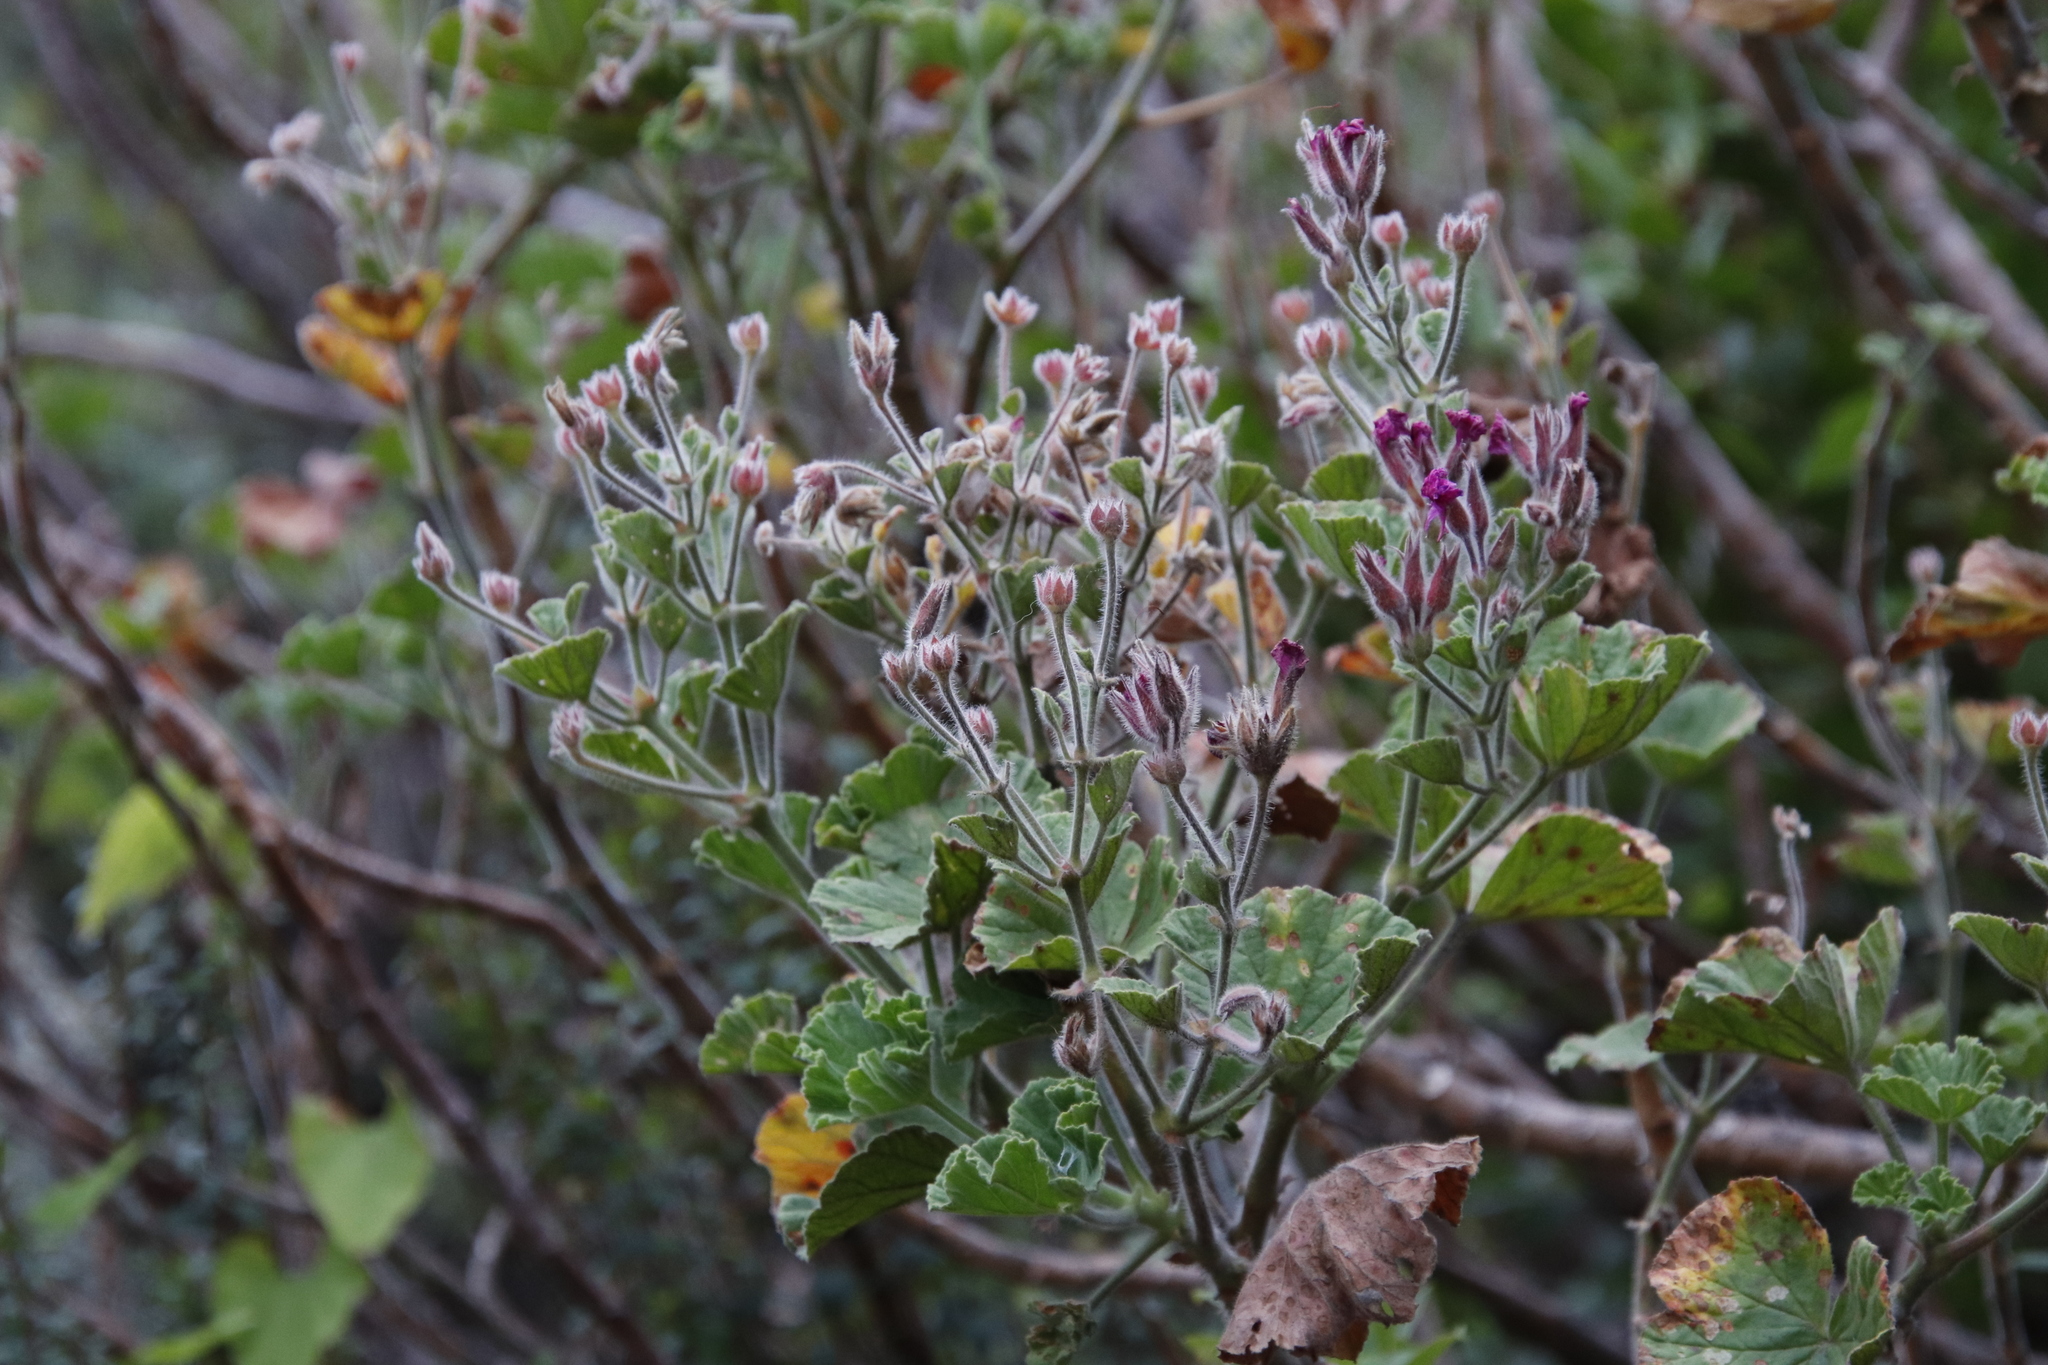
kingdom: Plantae
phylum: Tracheophyta
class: Magnoliopsida
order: Geraniales
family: Geraniaceae
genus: Pelargonium
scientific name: Pelargonium cucullatum
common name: Tree pelargonium
